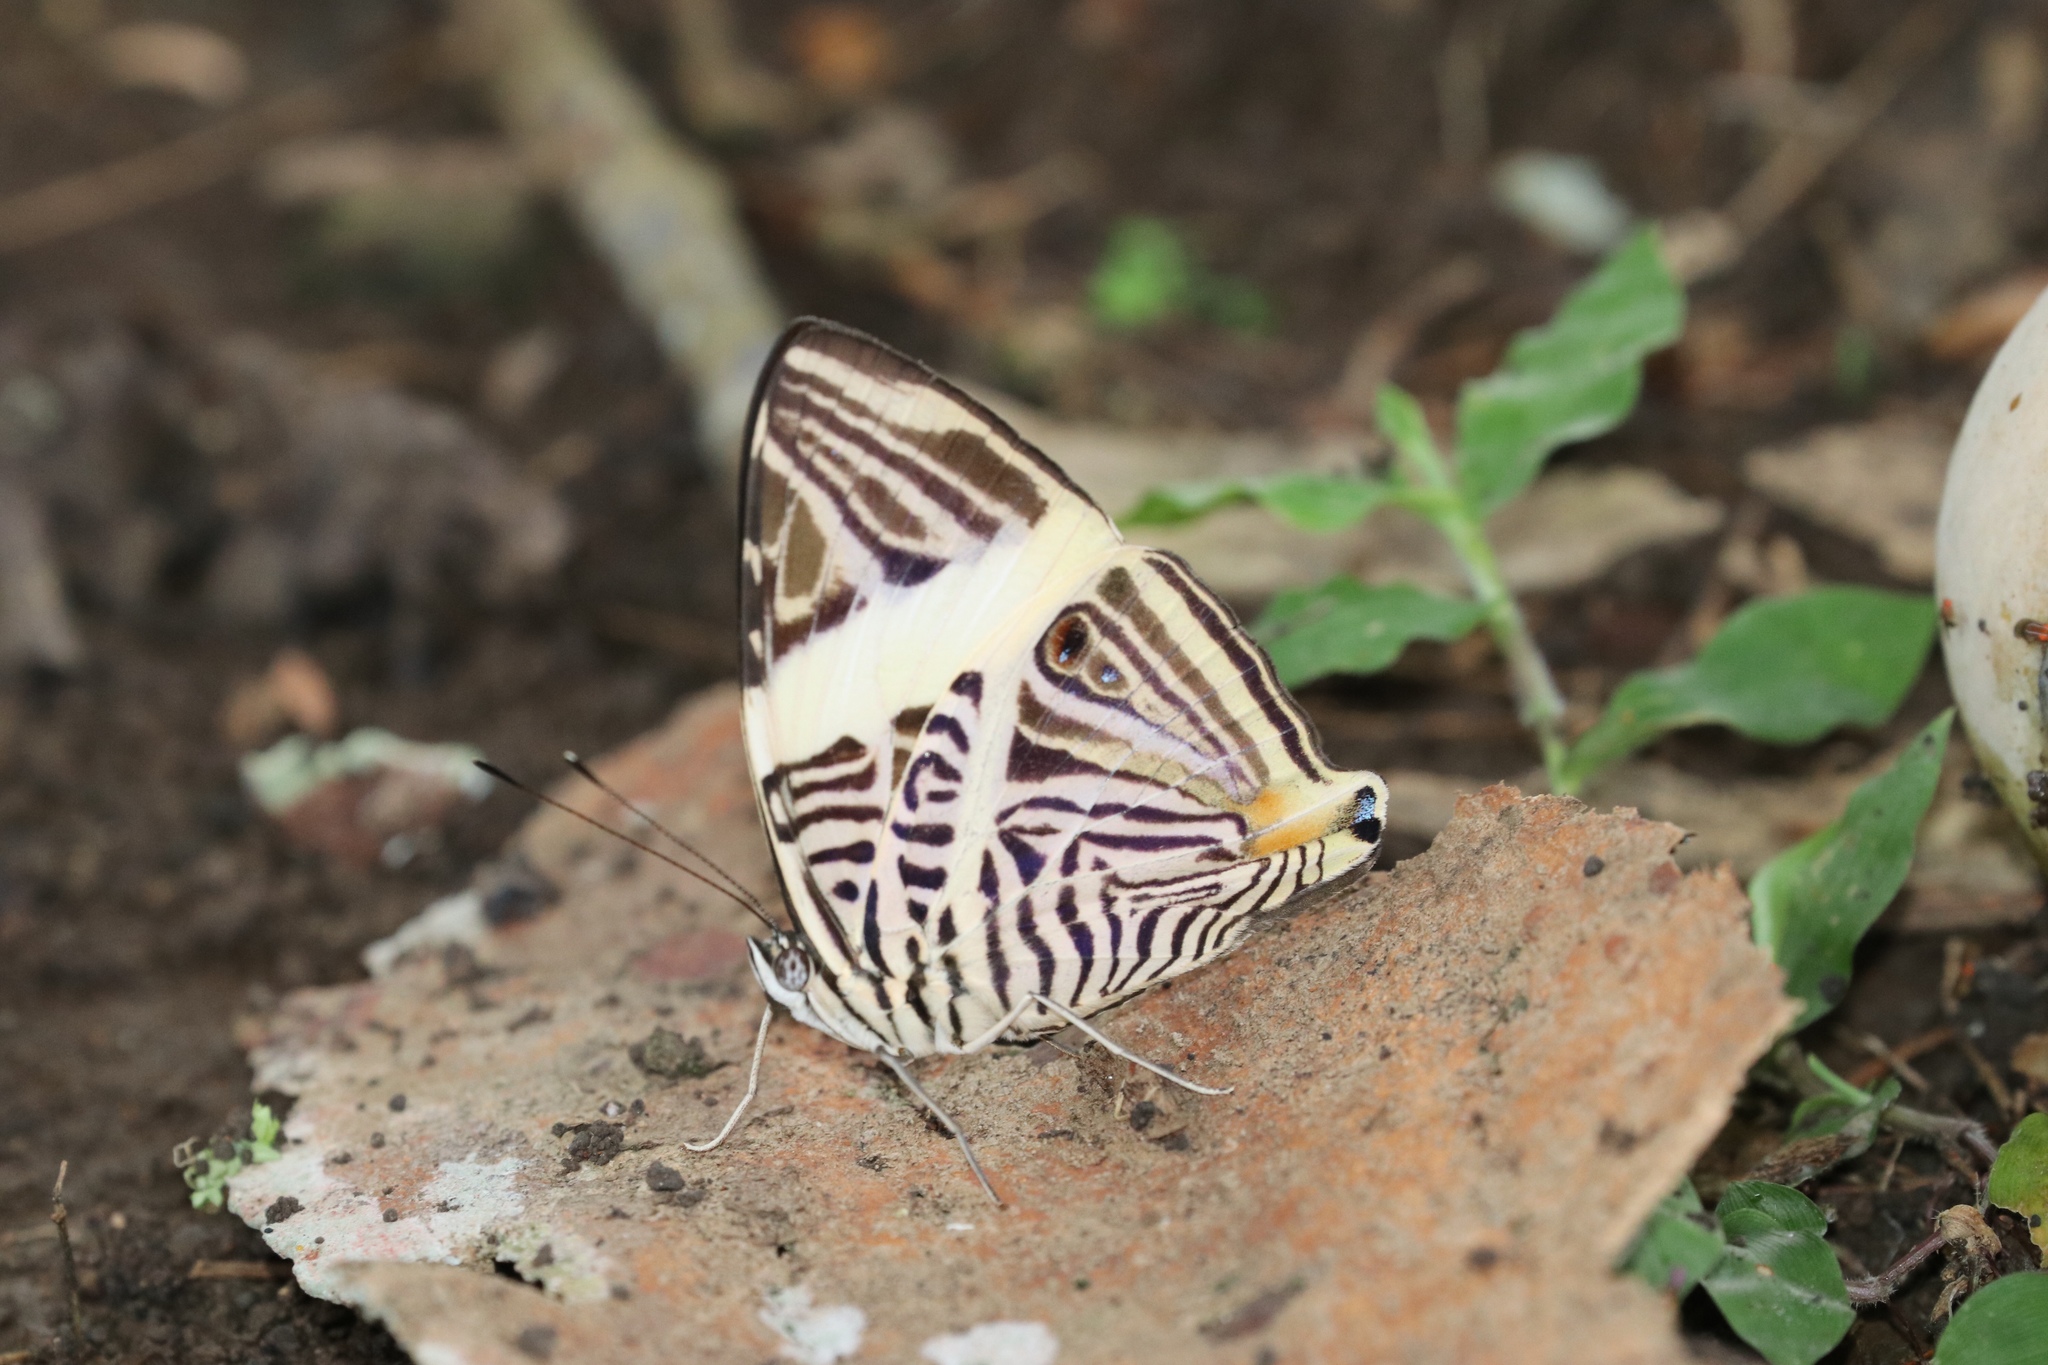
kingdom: Animalia
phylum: Arthropoda
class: Insecta
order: Lepidoptera
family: Nymphalidae
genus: Colobura
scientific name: Colobura dirce
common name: Dirce beauty
